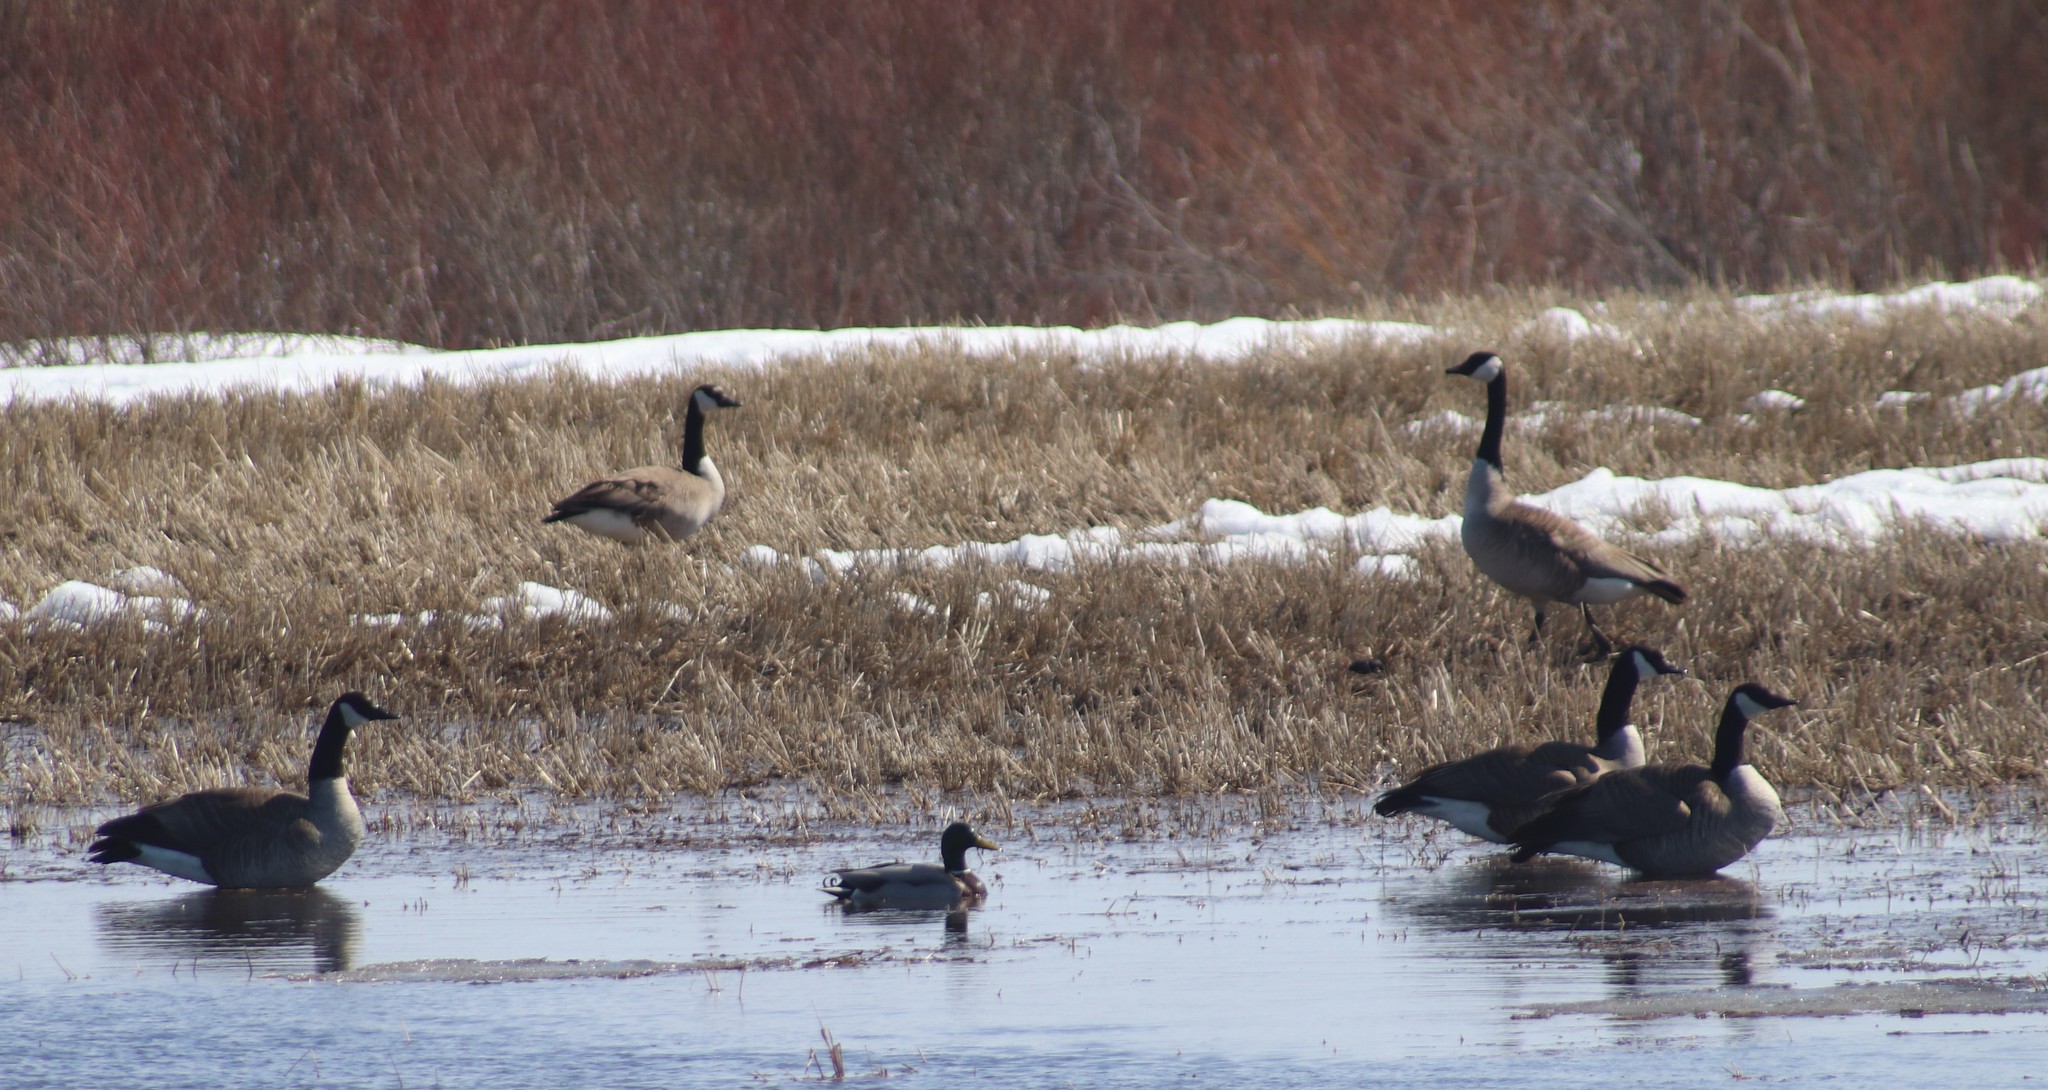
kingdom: Animalia
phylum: Chordata
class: Aves
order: Anseriformes
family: Anatidae
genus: Branta
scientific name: Branta canadensis
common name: Canada goose
